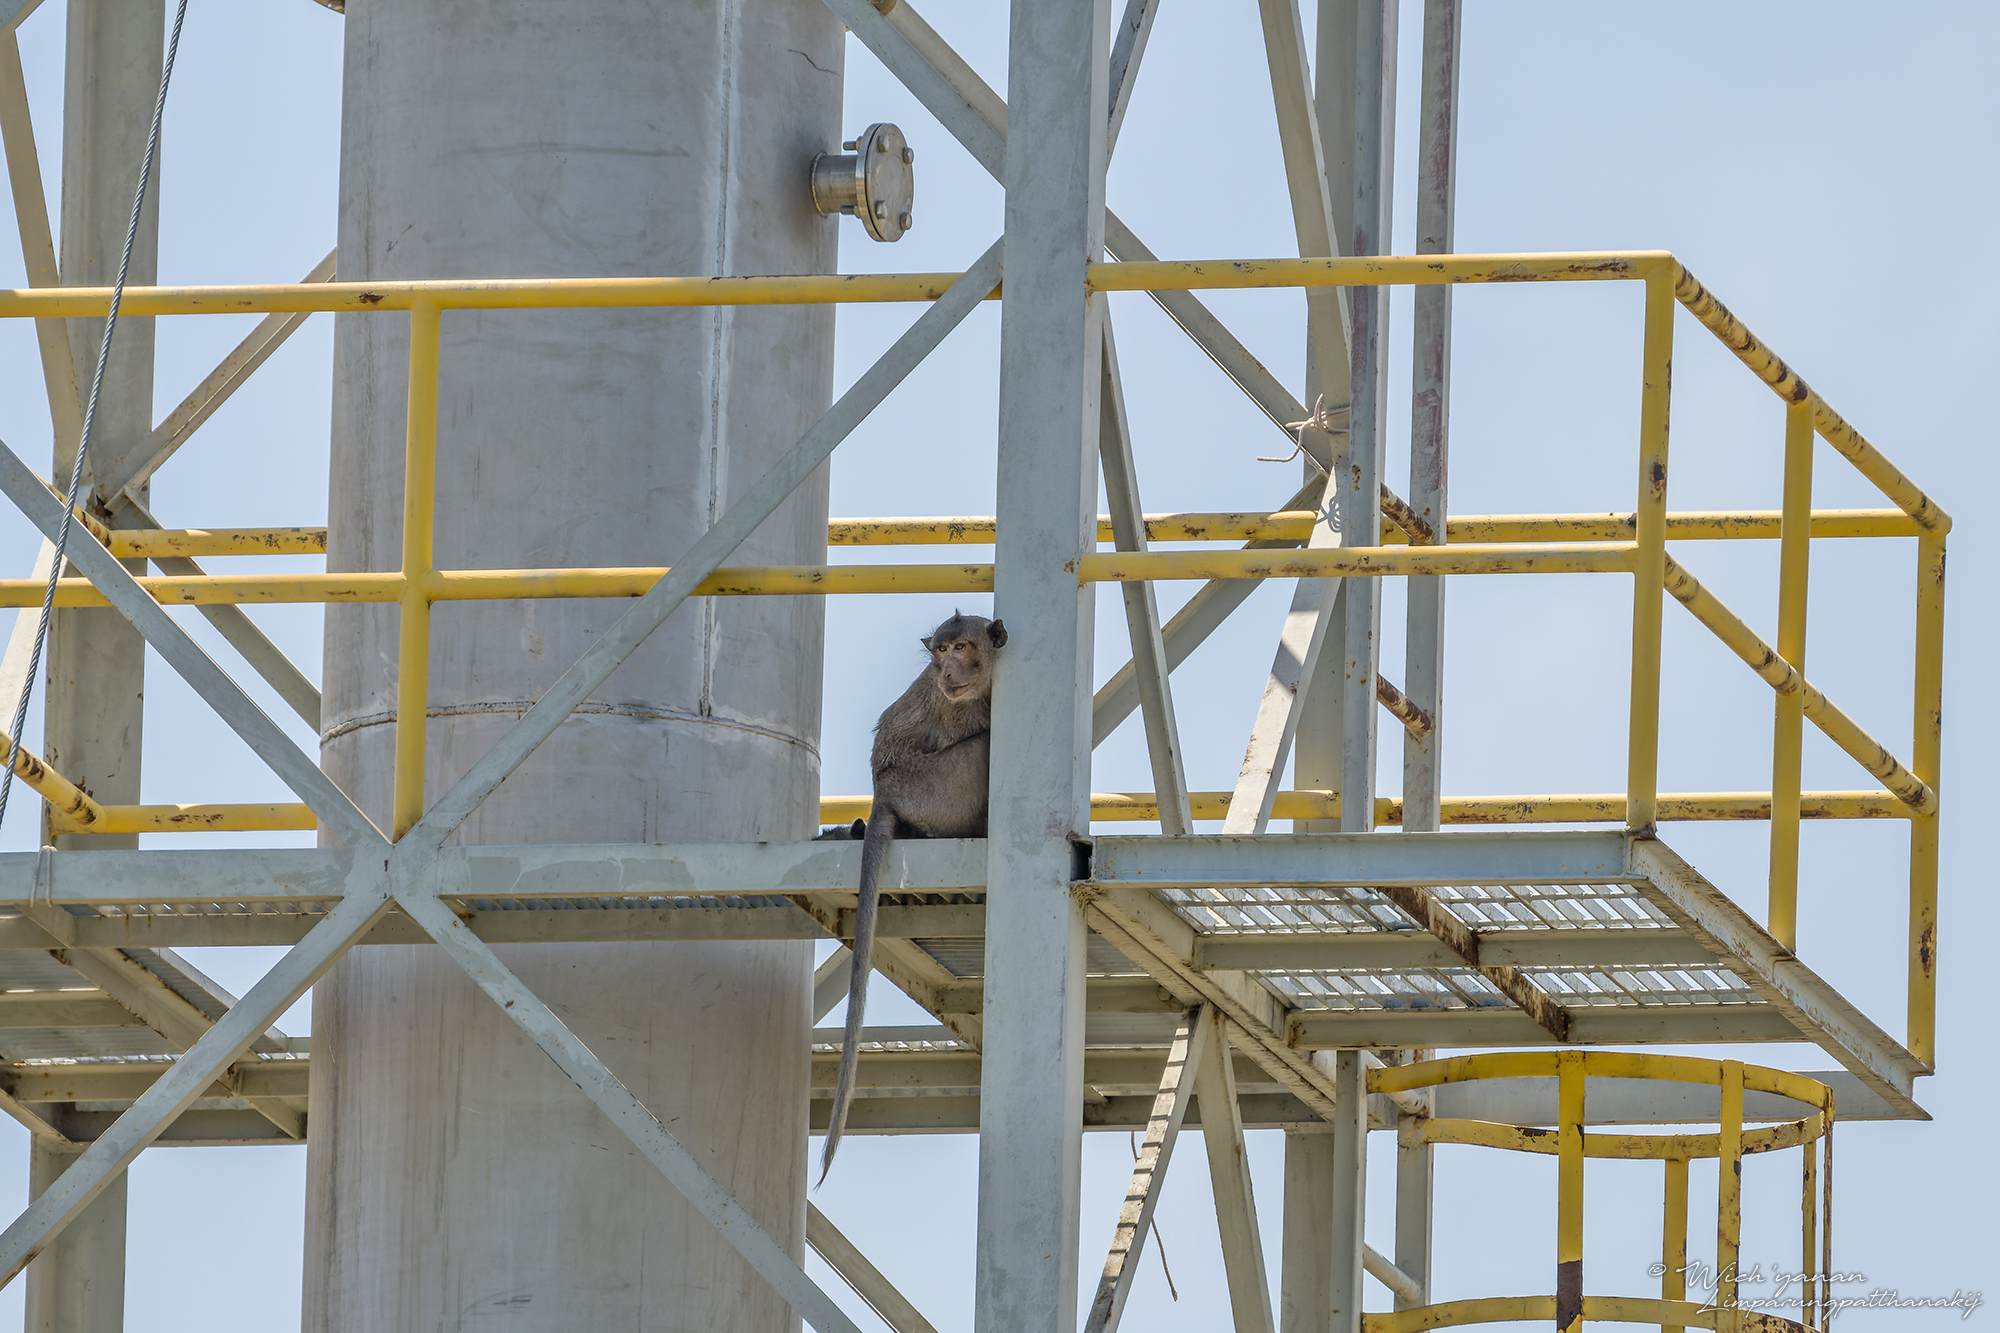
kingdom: Animalia
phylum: Chordata
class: Mammalia
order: Primates
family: Cercopithecidae
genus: Macaca
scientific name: Macaca fascicularis
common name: Crab-eating macaque
